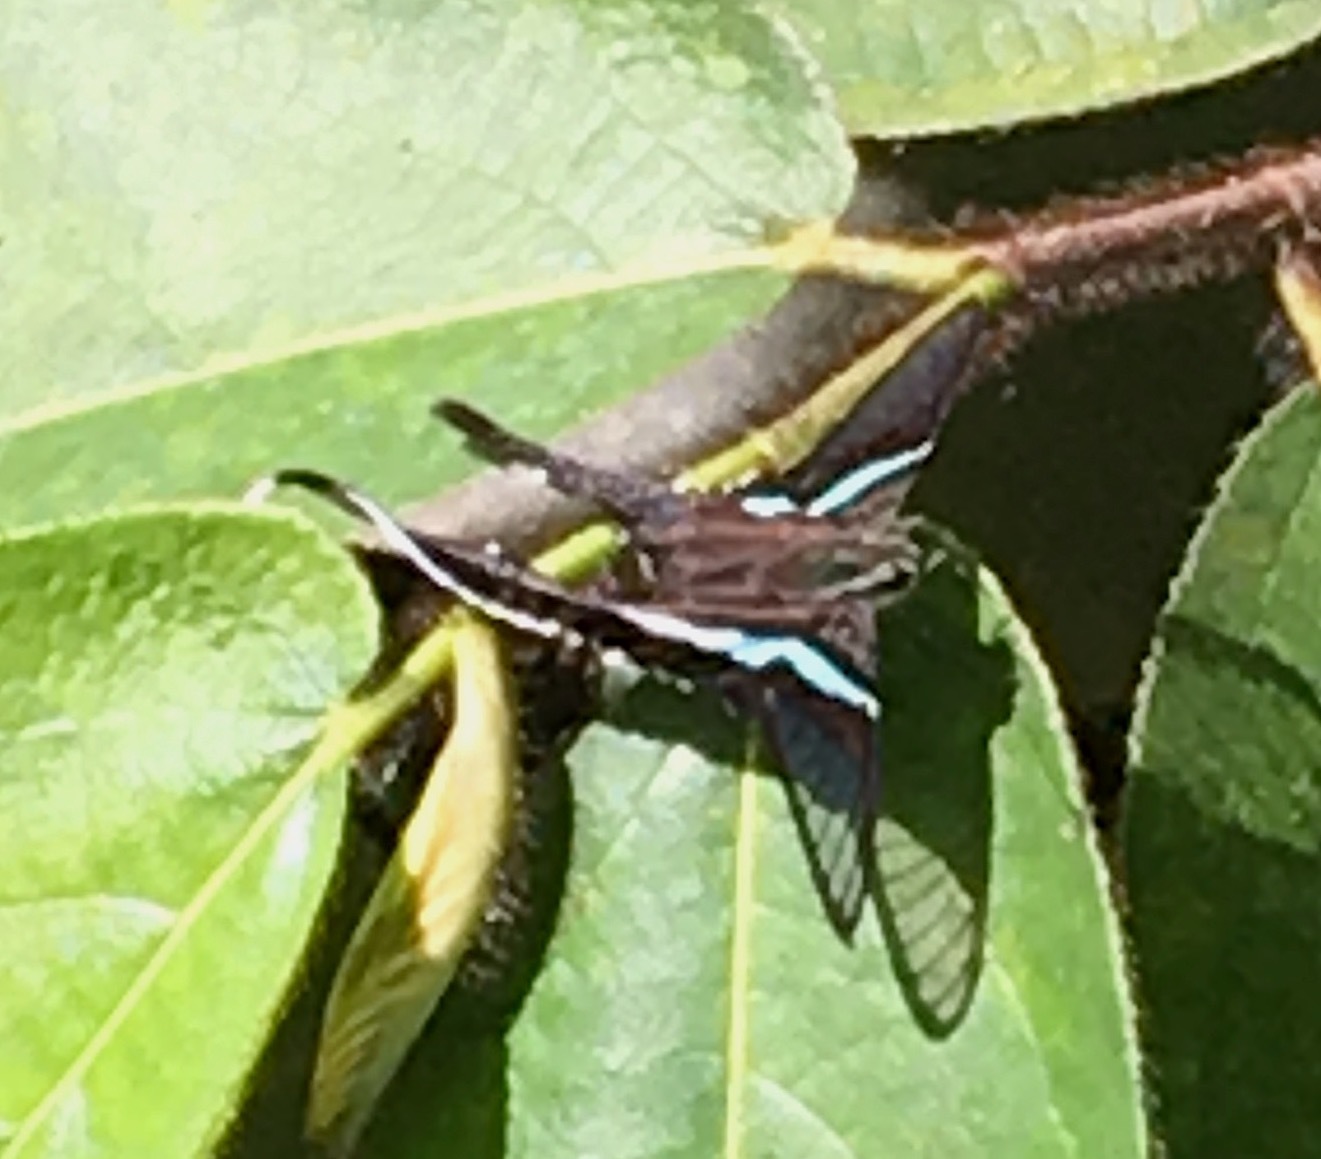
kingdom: Animalia
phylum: Arthropoda
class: Insecta
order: Lepidoptera
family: Papilionidae
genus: Lamproptera
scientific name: Lamproptera meges
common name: Green dragontail
